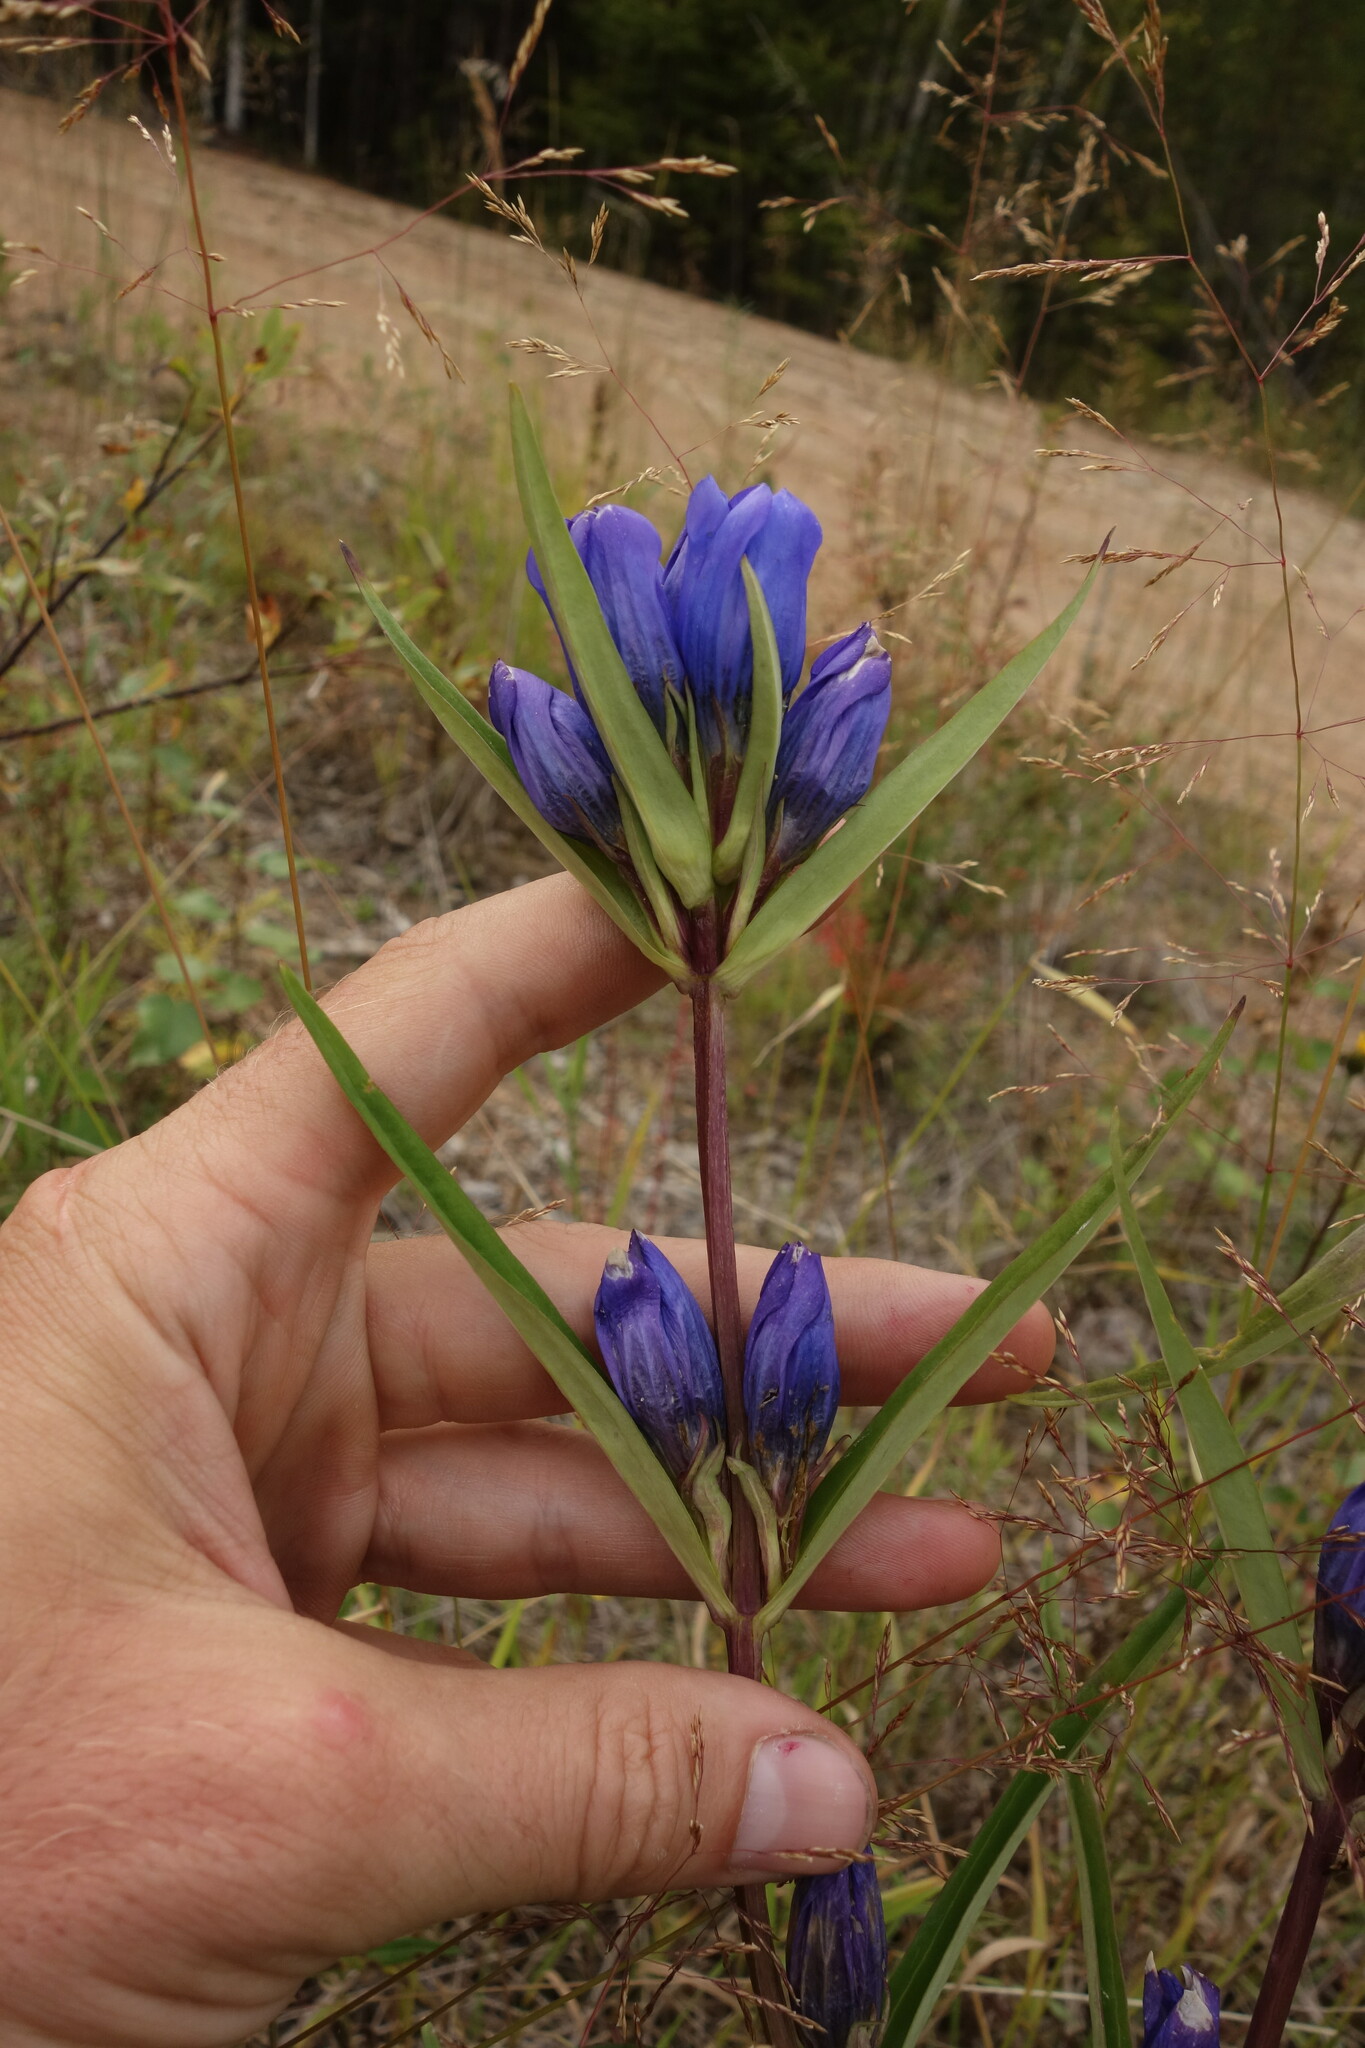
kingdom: Plantae
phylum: Tracheophyta
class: Magnoliopsida
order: Gentianales
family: Gentianaceae
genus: Gentiana
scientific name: Gentiana triflora
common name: Three-flower gentian
